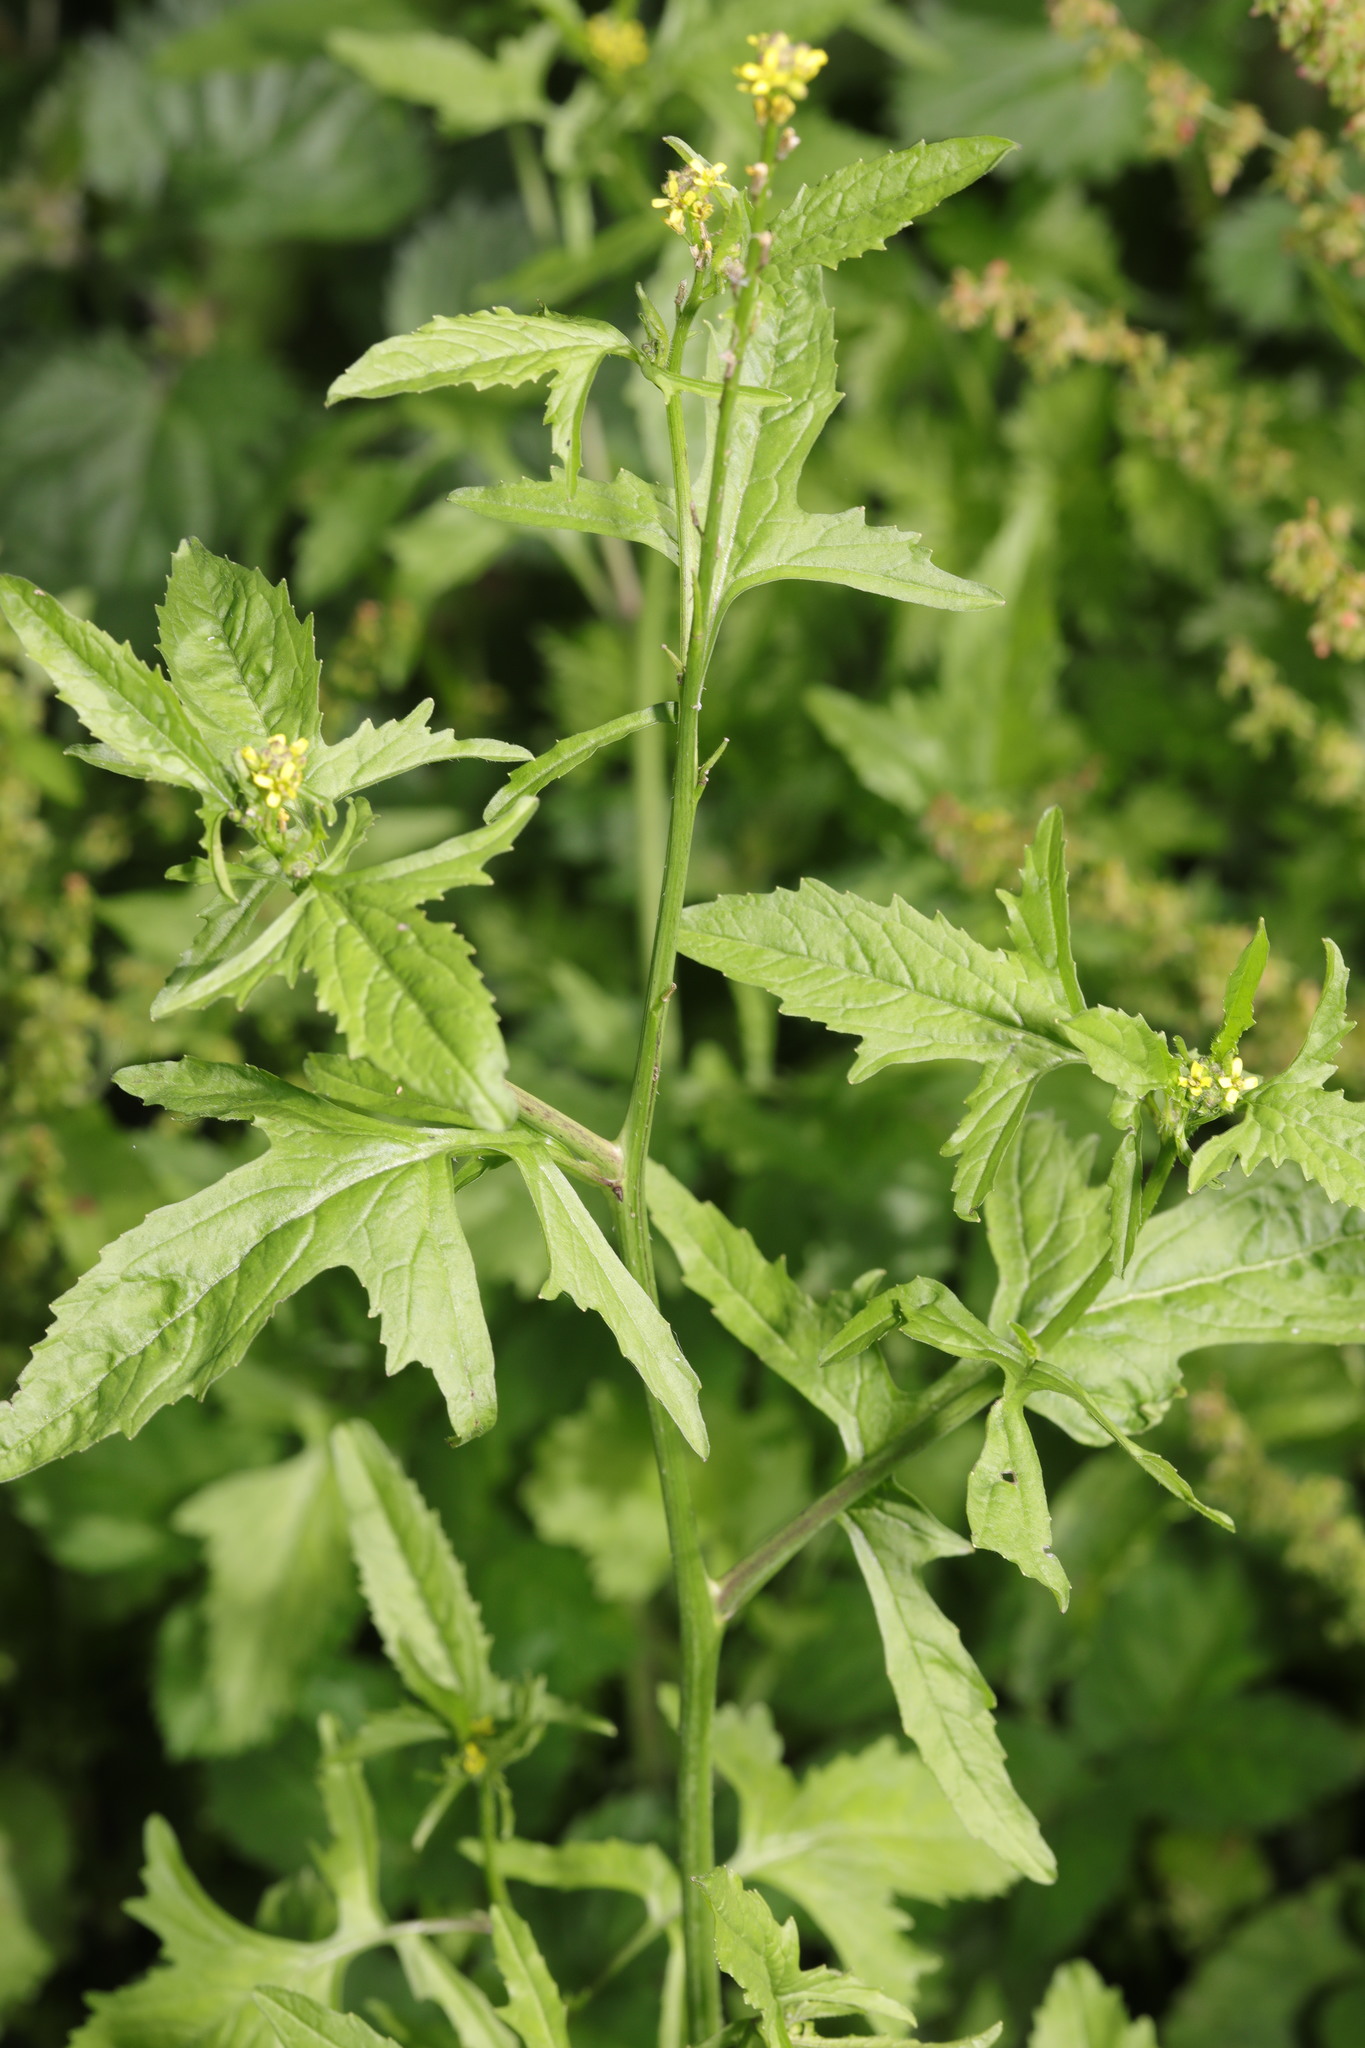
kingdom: Plantae
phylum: Tracheophyta
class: Magnoliopsida
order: Brassicales
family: Brassicaceae
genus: Sisymbrium
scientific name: Sisymbrium officinale
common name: Hedge mustard
